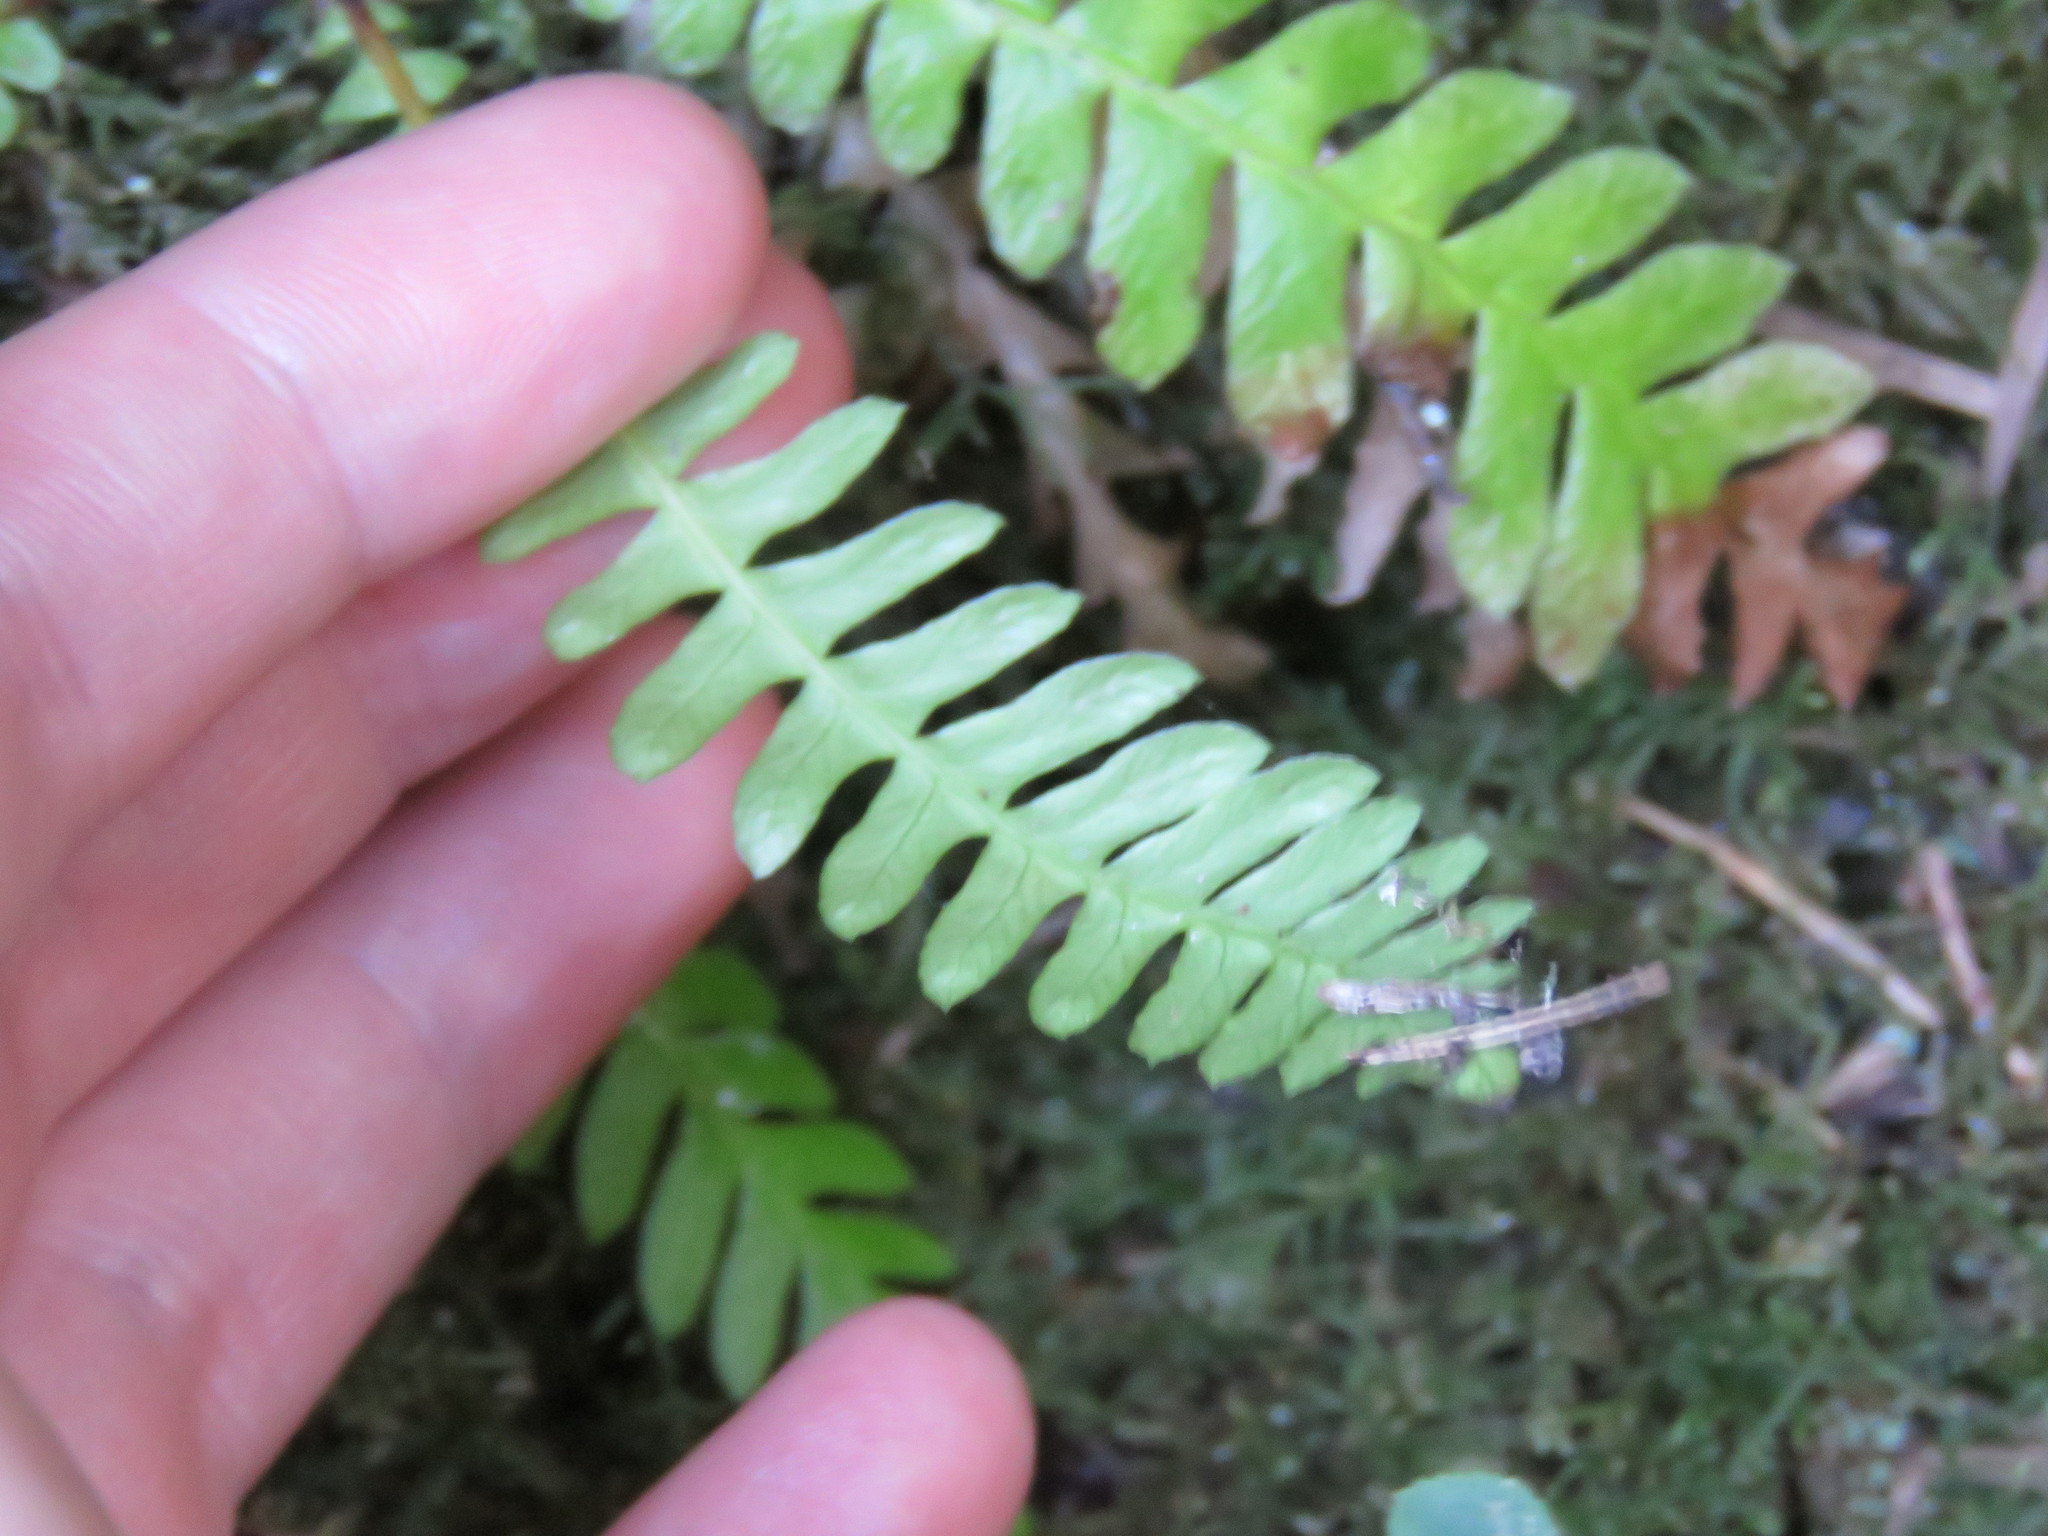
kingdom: Plantae
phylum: Tracheophyta
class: Polypodiopsida
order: Polypodiales
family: Blechnaceae
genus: Struthiopteris
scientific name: Struthiopteris spicant
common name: Deer fern
